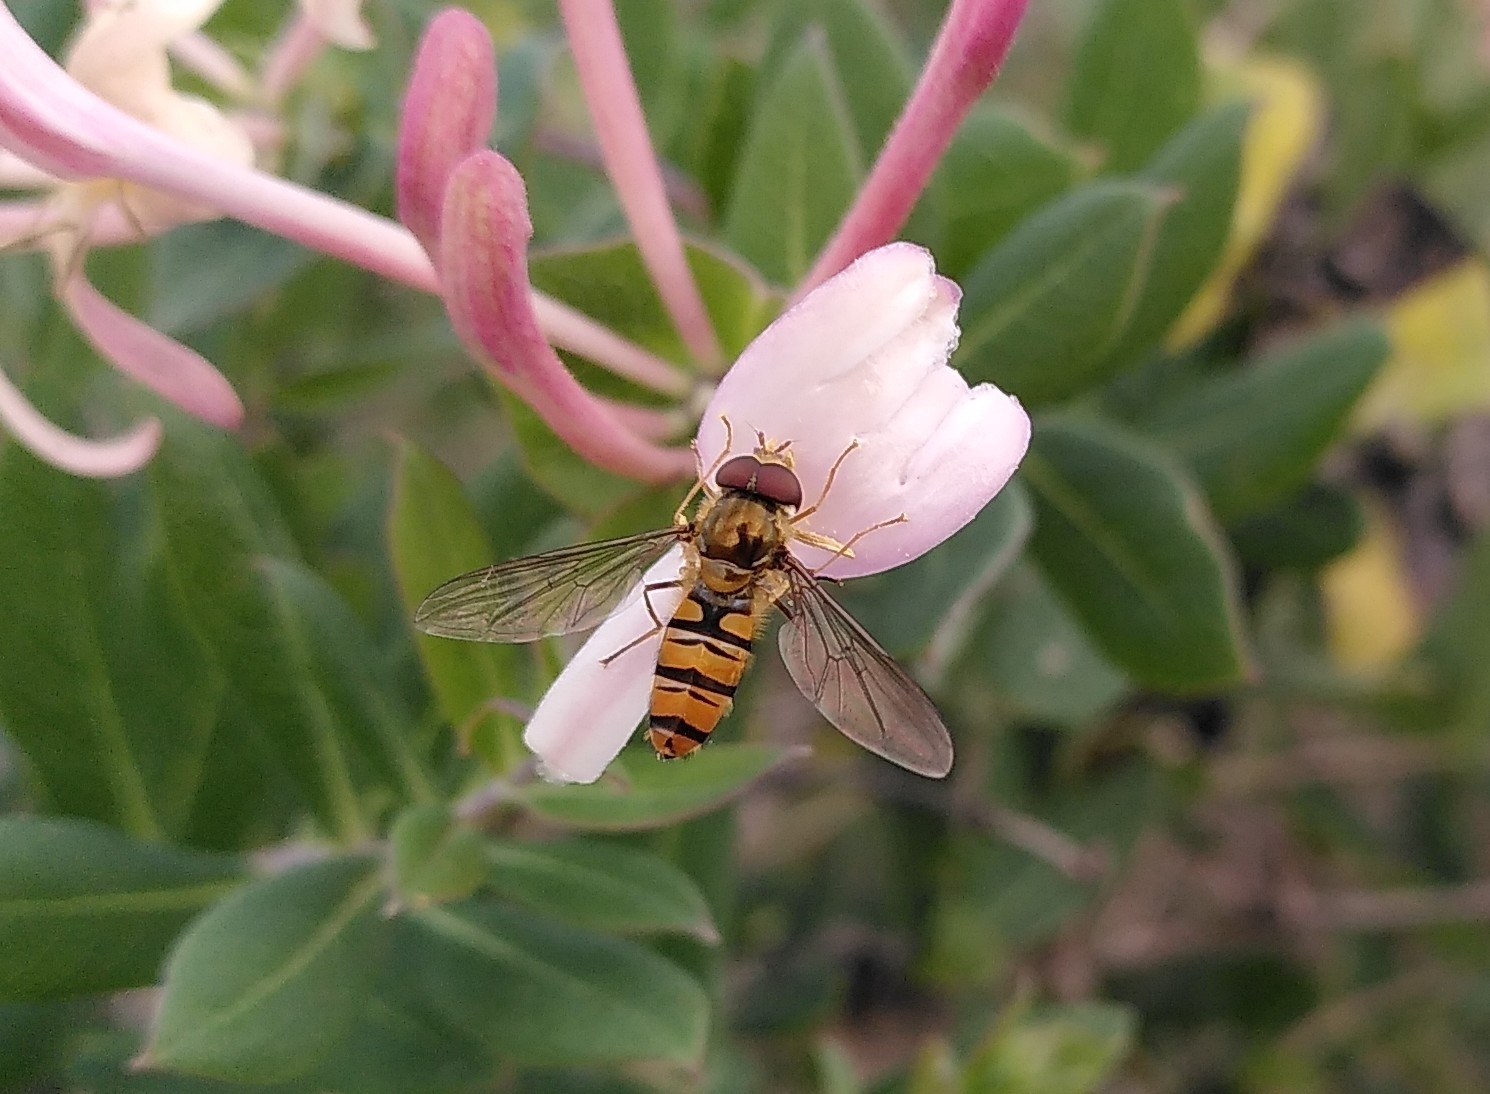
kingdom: Animalia
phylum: Arthropoda
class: Insecta
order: Diptera
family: Syrphidae
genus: Episyrphus
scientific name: Episyrphus balteatus
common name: Marmalade hoverfly
